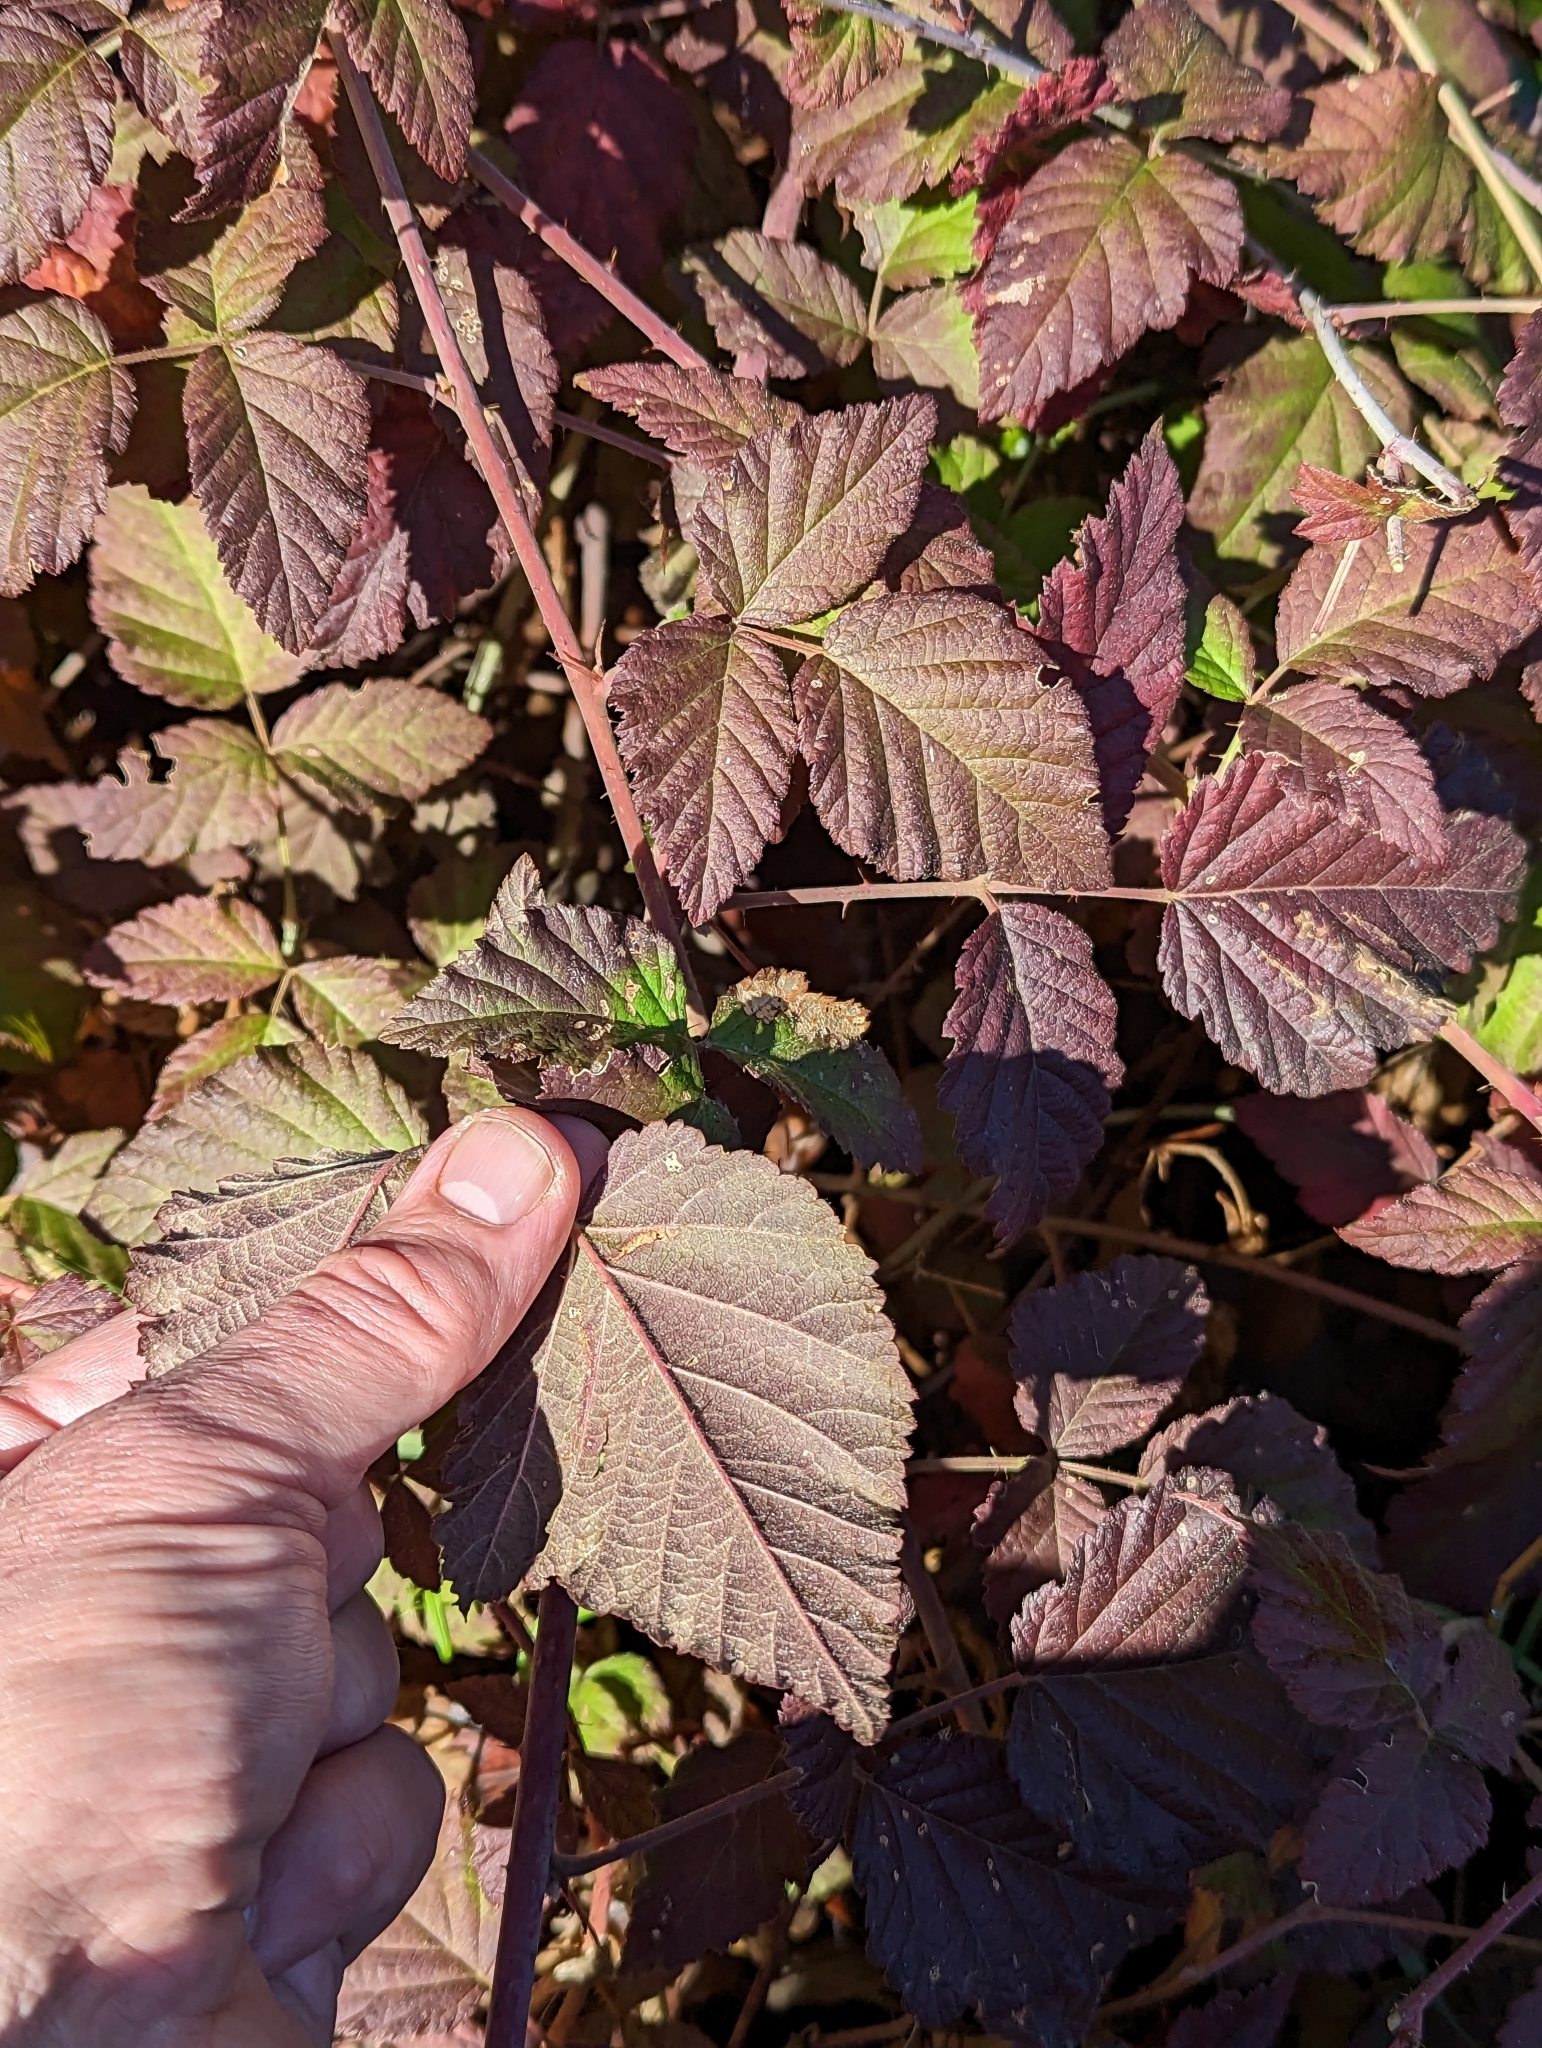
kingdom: Plantae
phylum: Tracheophyta
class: Magnoliopsida
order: Rosales
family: Rosaceae
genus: Rubus
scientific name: Rubus ursinus
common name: Pacific blackberry
